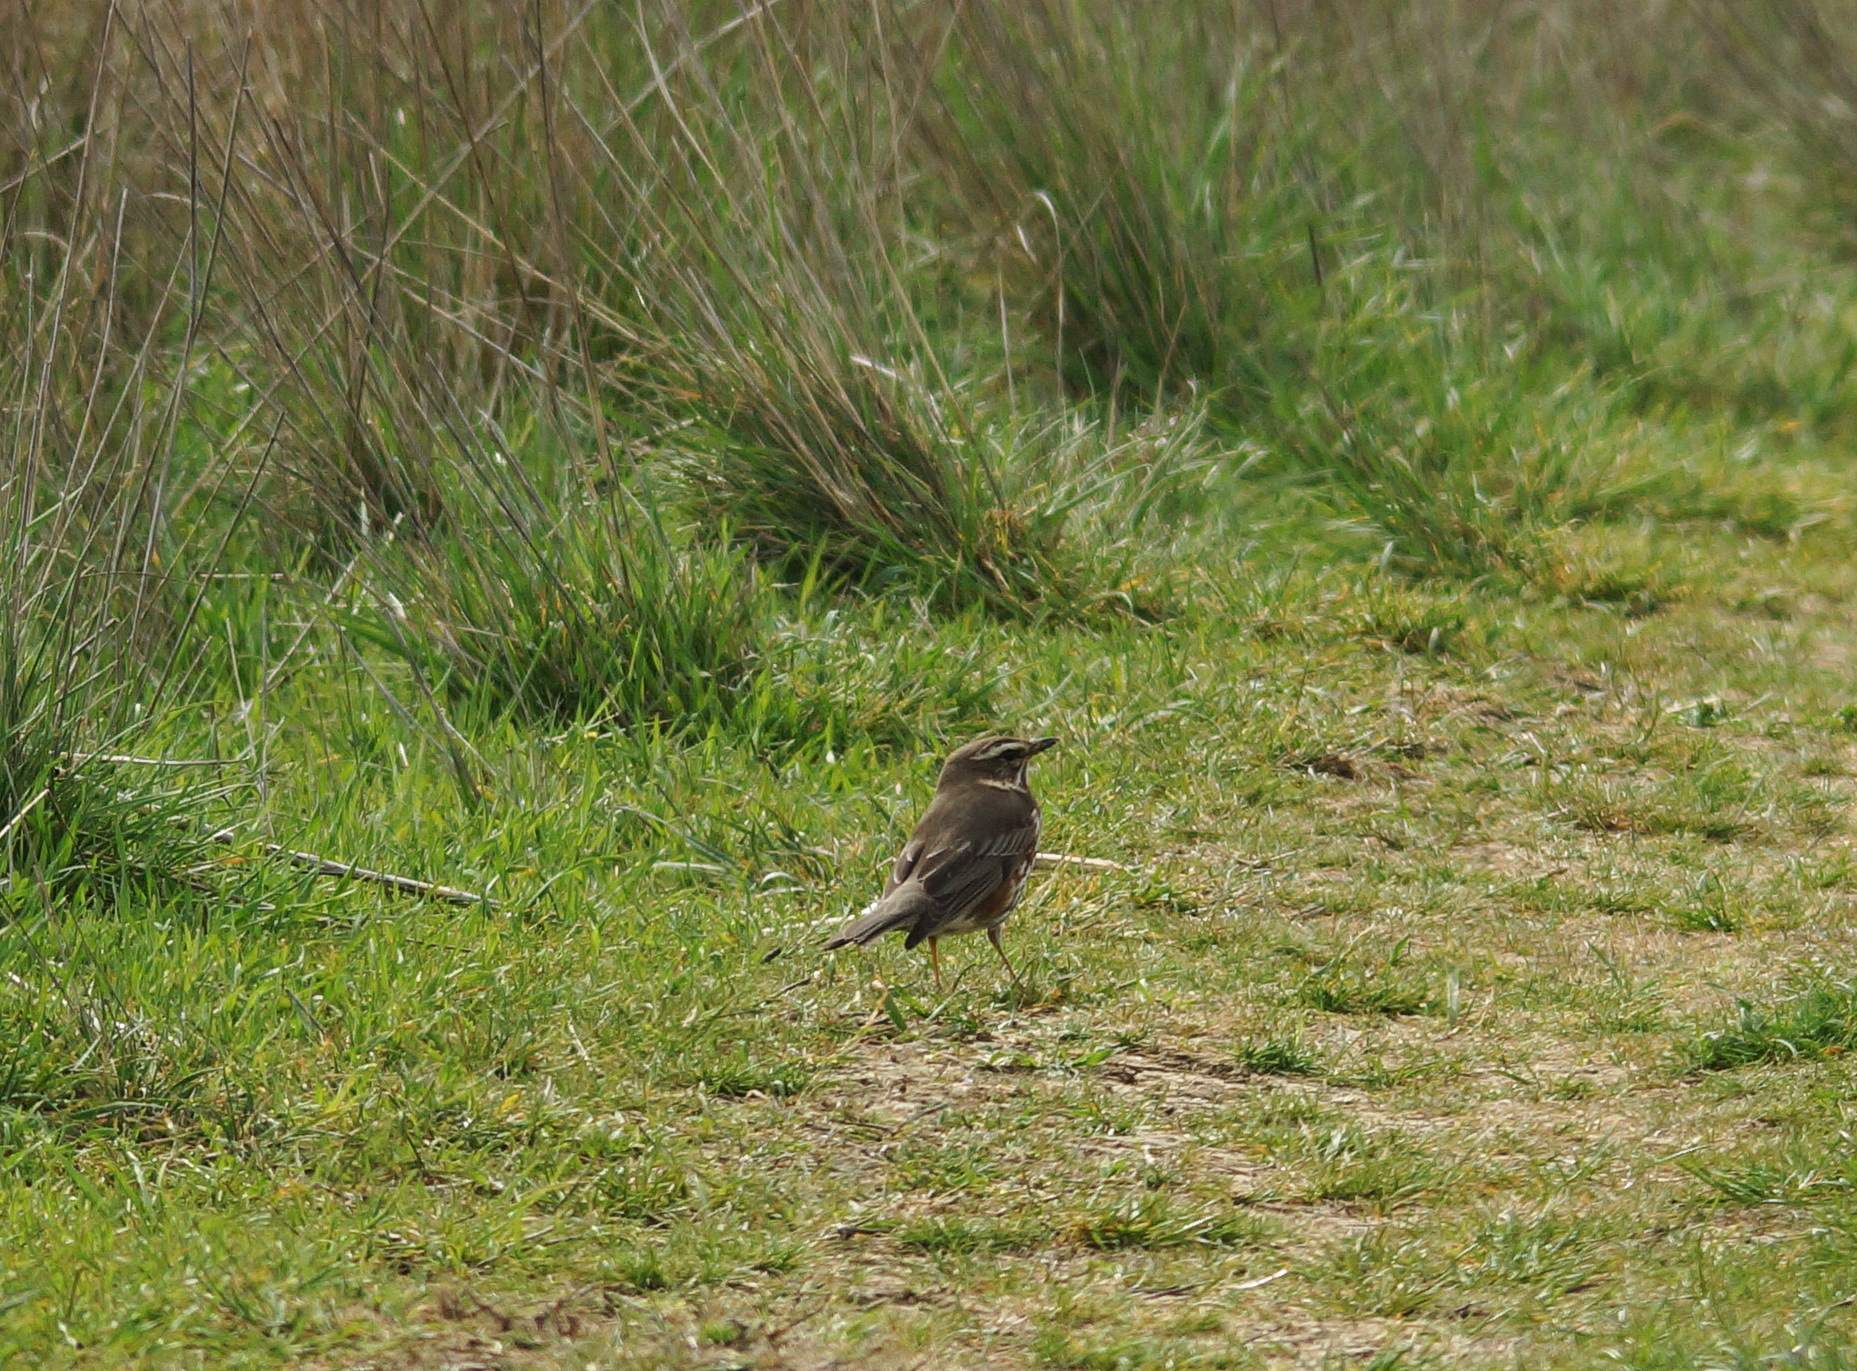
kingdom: Animalia
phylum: Chordata
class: Aves
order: Passeriformes
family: Turdidae
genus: Turdus
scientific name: Turdus iliacus
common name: Redwing
